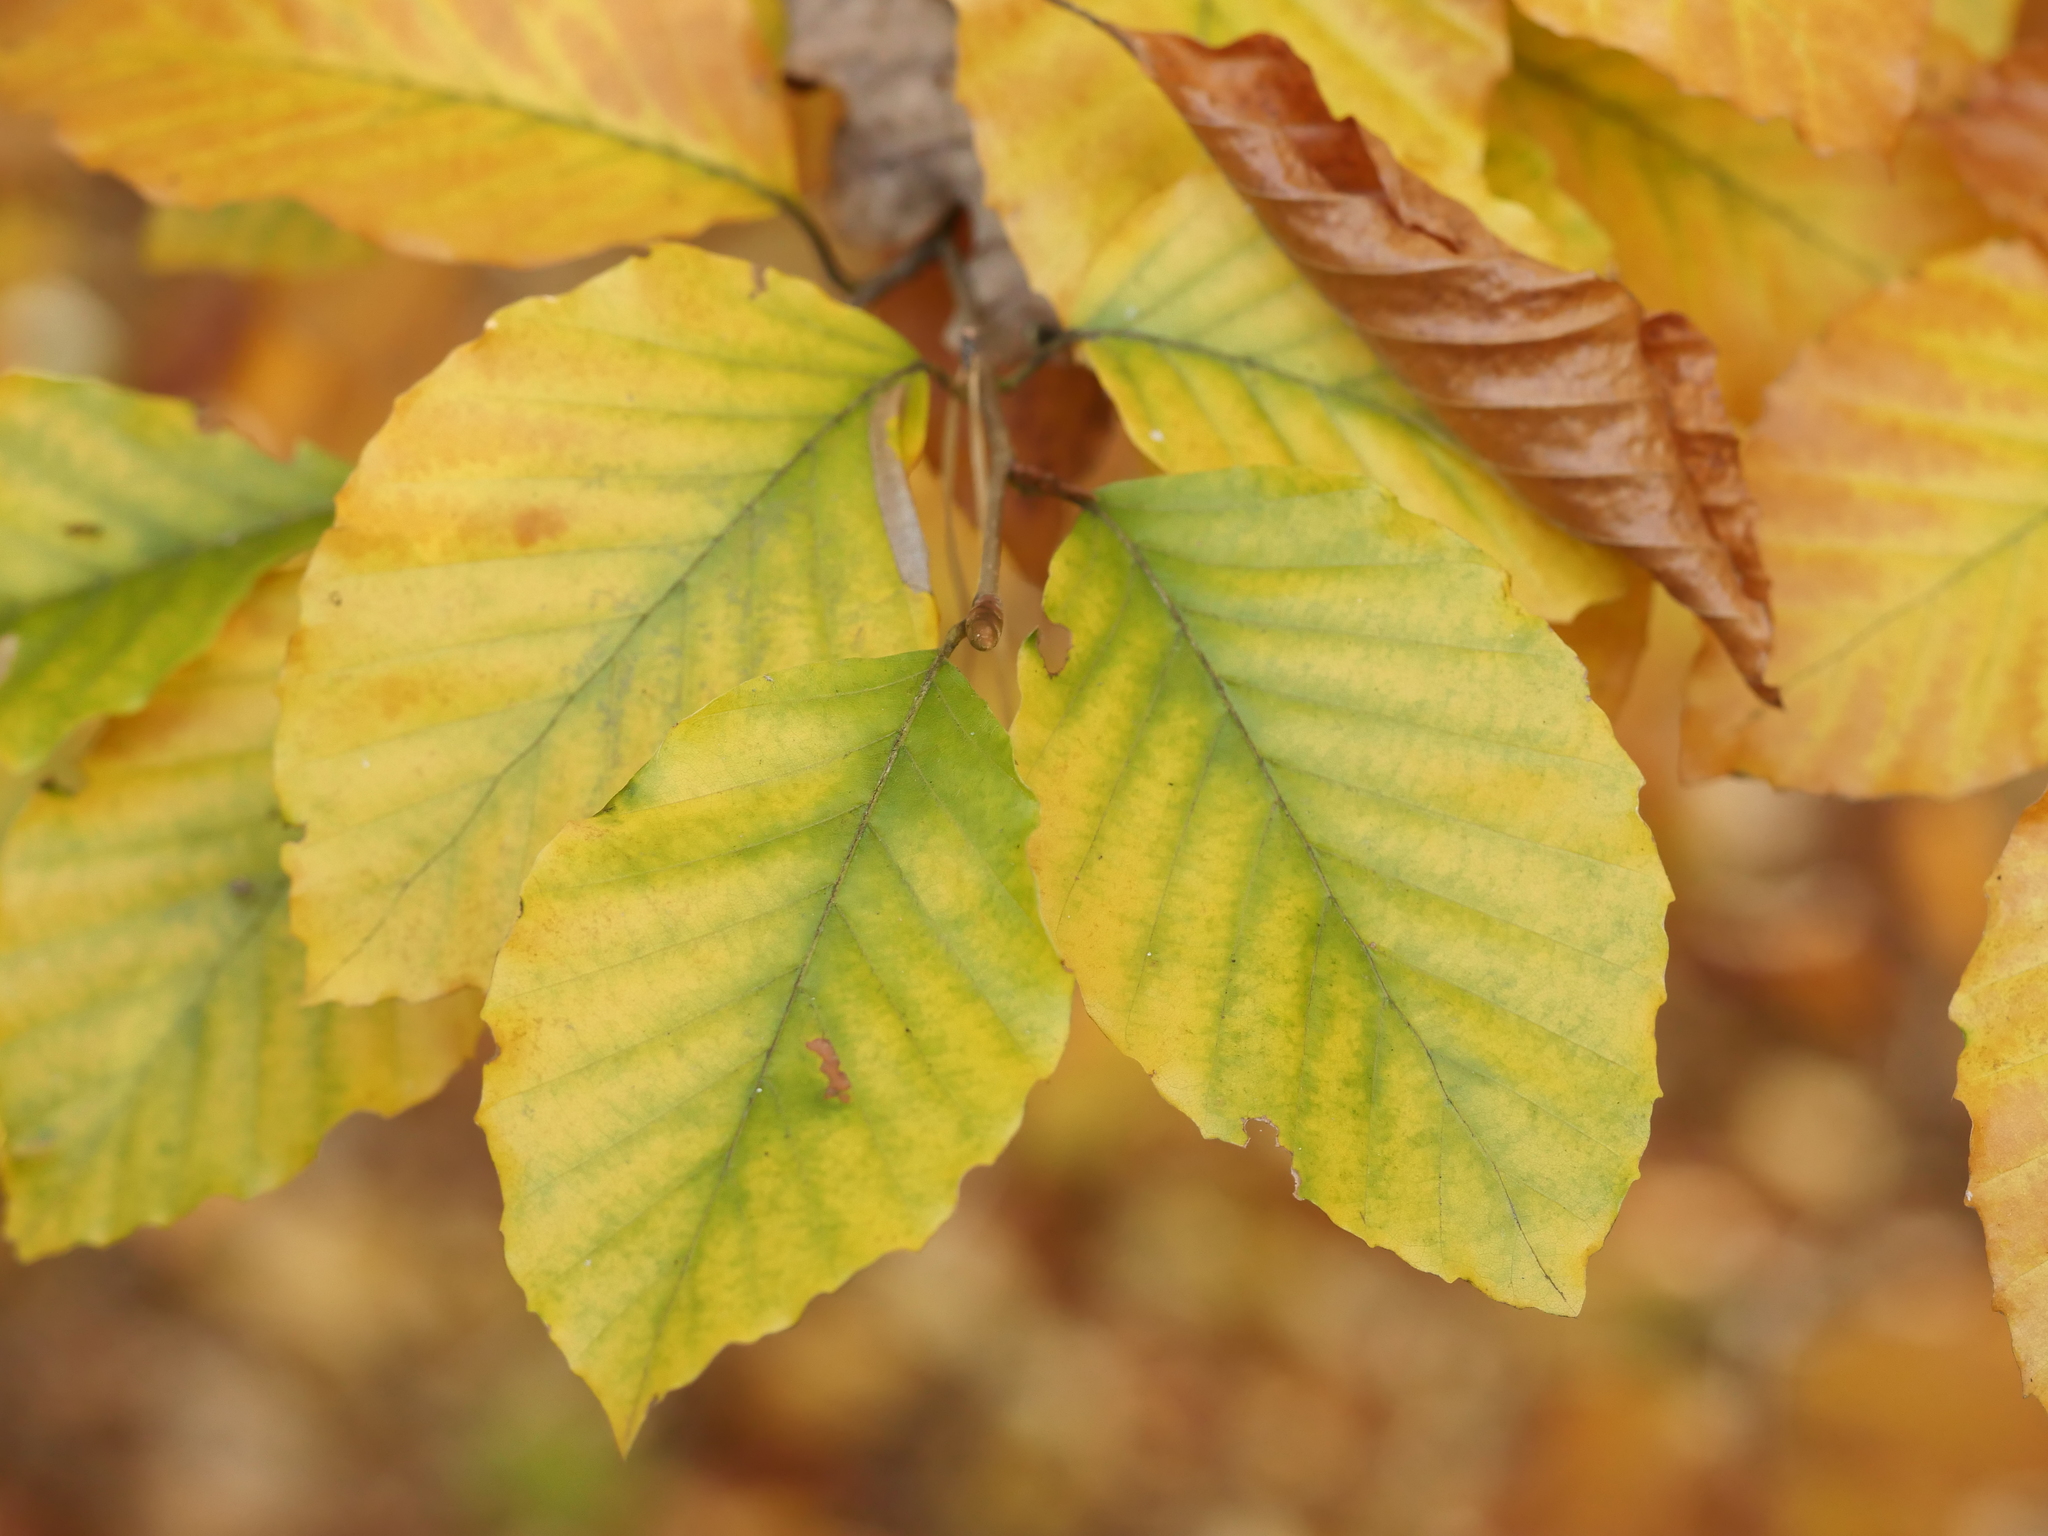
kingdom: Plantae
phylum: Tracheophyta
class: Magnoliopsida
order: Fagales
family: Fagaceae
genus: Fagus
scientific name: Fagus sylvatica
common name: Beech
